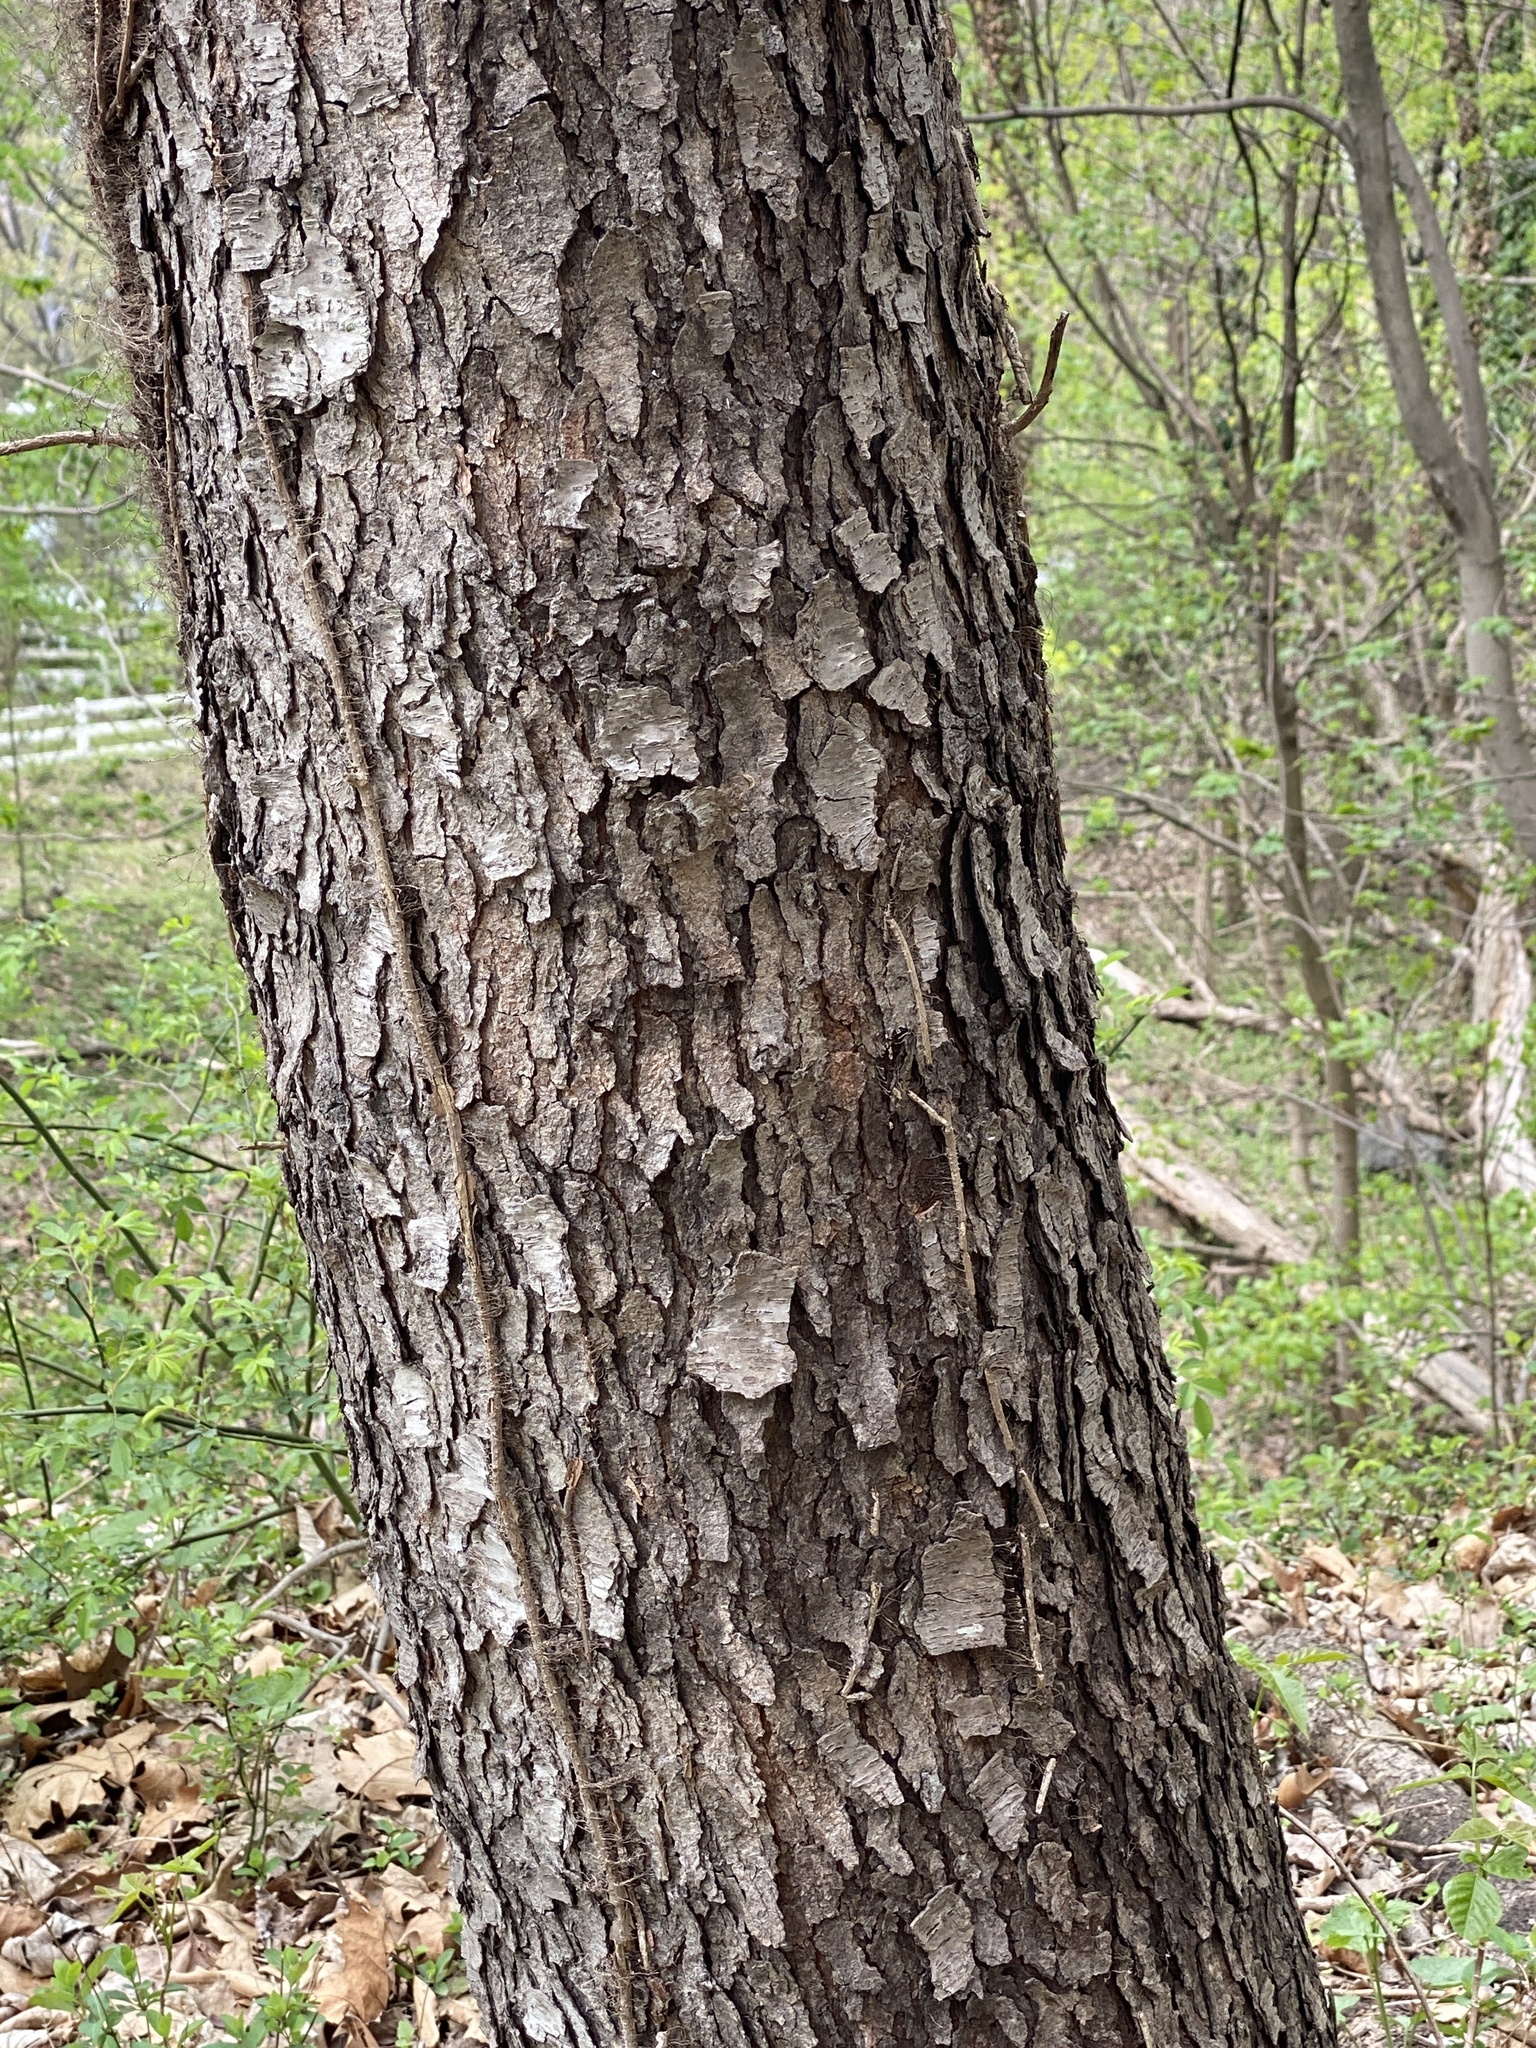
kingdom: Plantae
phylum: Tracheophyta
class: Magnoliopsida
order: Rosales
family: Rosaceae
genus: Prunus
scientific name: Prunus serotina
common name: Black cherry
